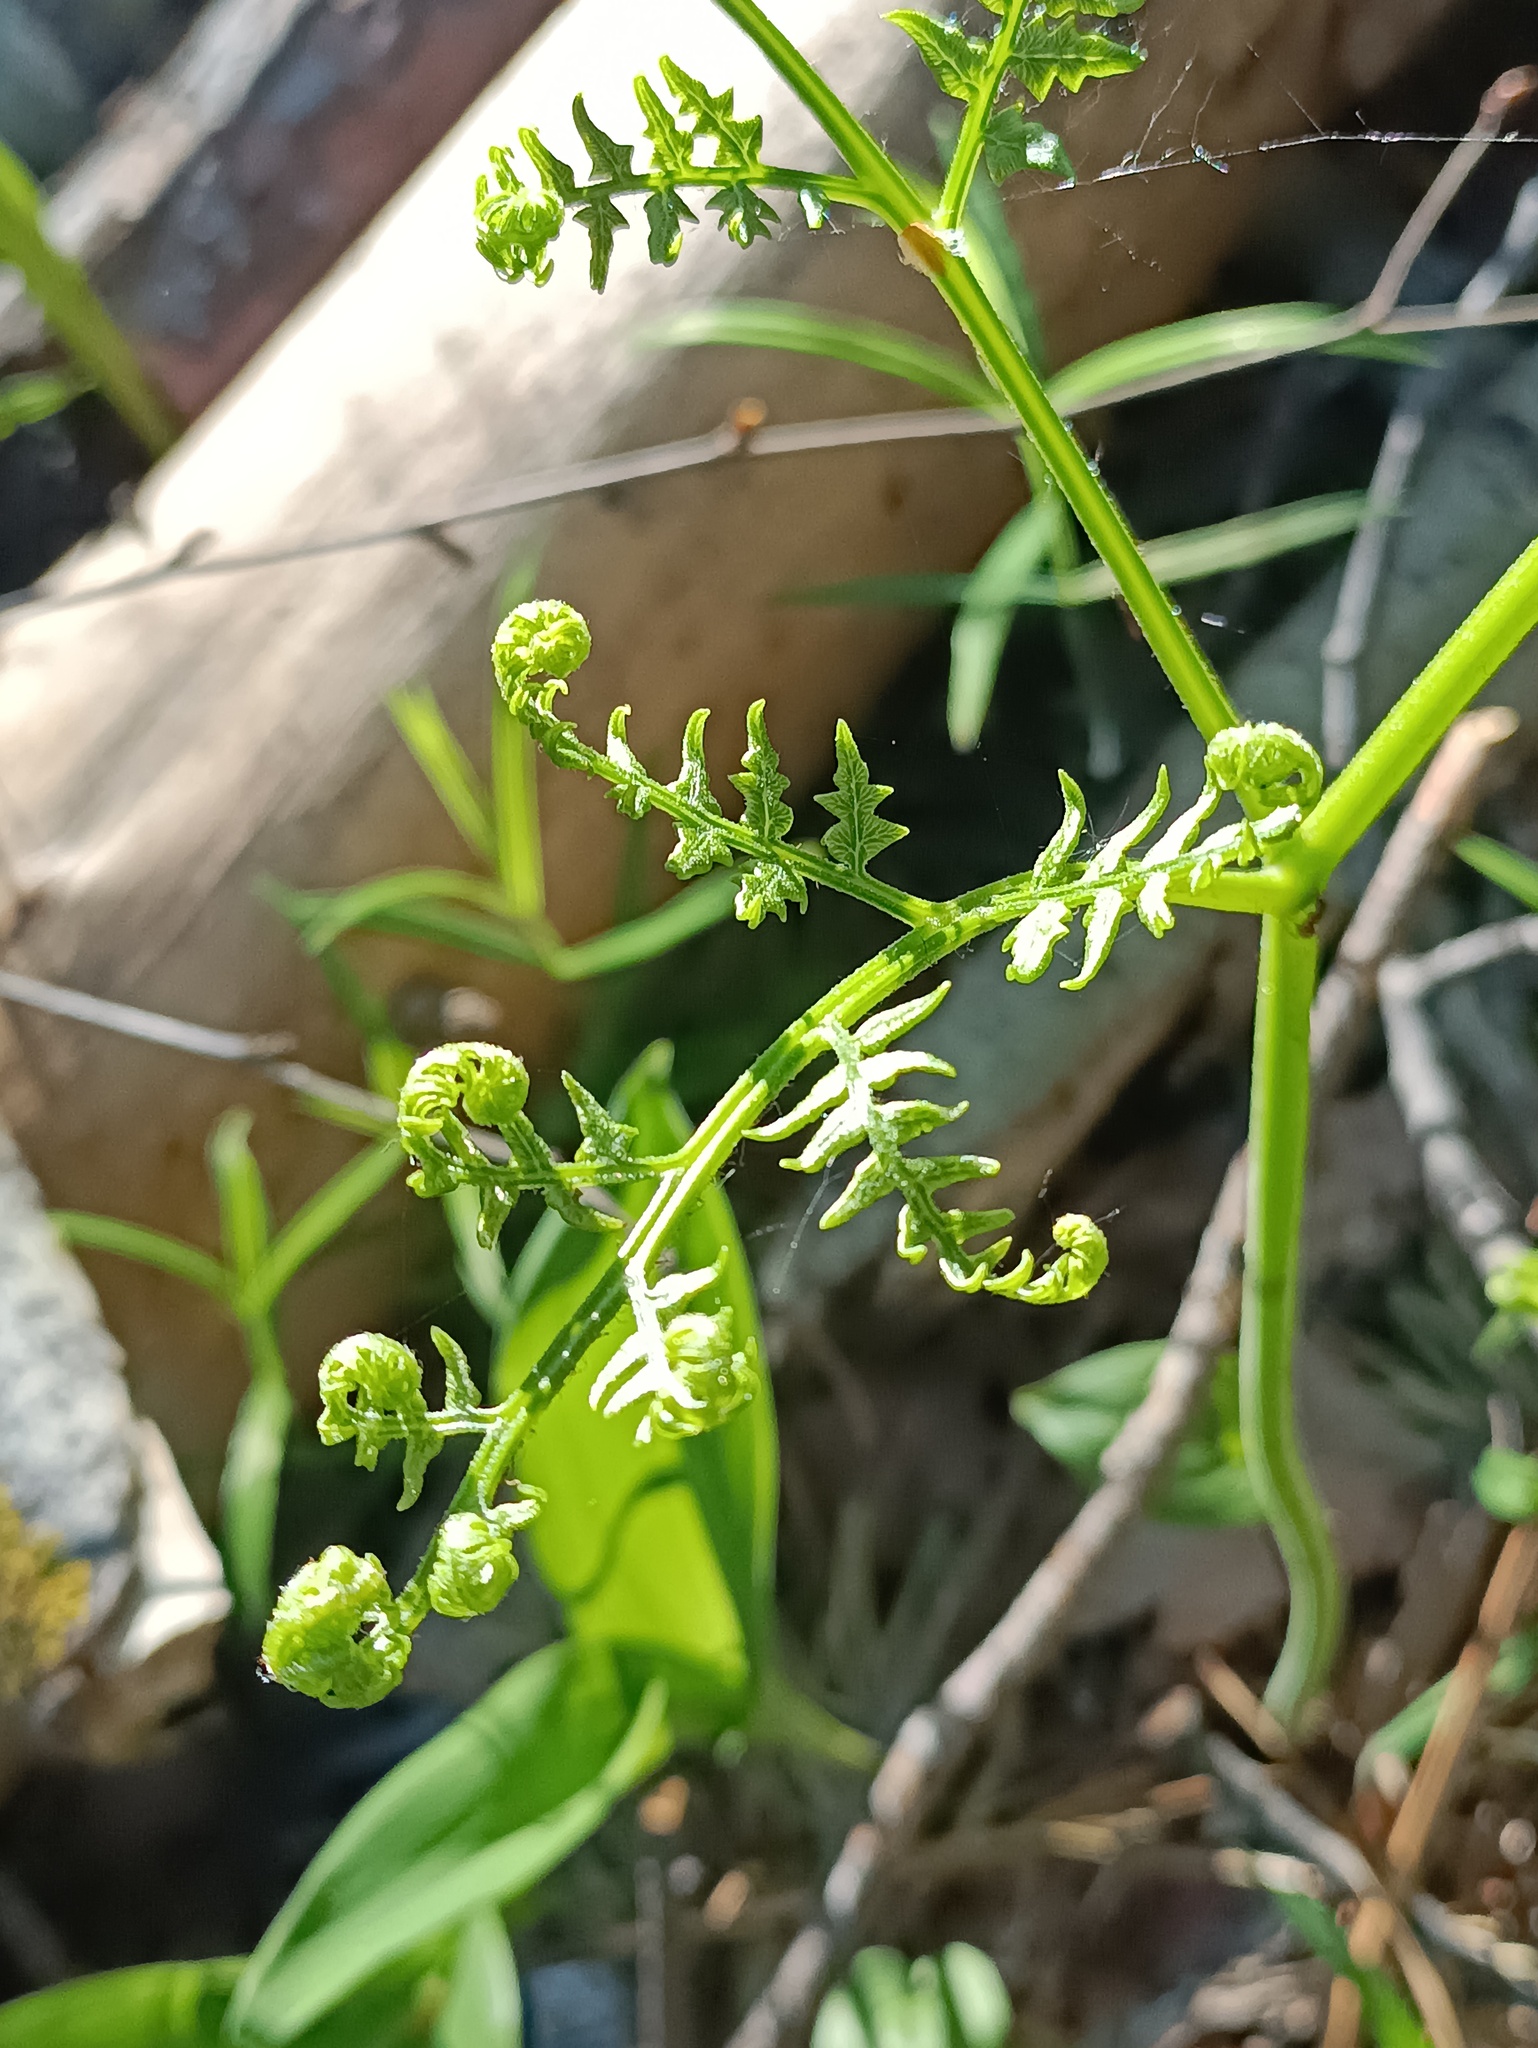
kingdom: Plantae
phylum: Tracheophyta
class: Polypodiopsida
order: Polypodiales
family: Dennstaedtiaceae
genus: Pteridium
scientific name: Pteridium aquilinum
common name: Bracken
